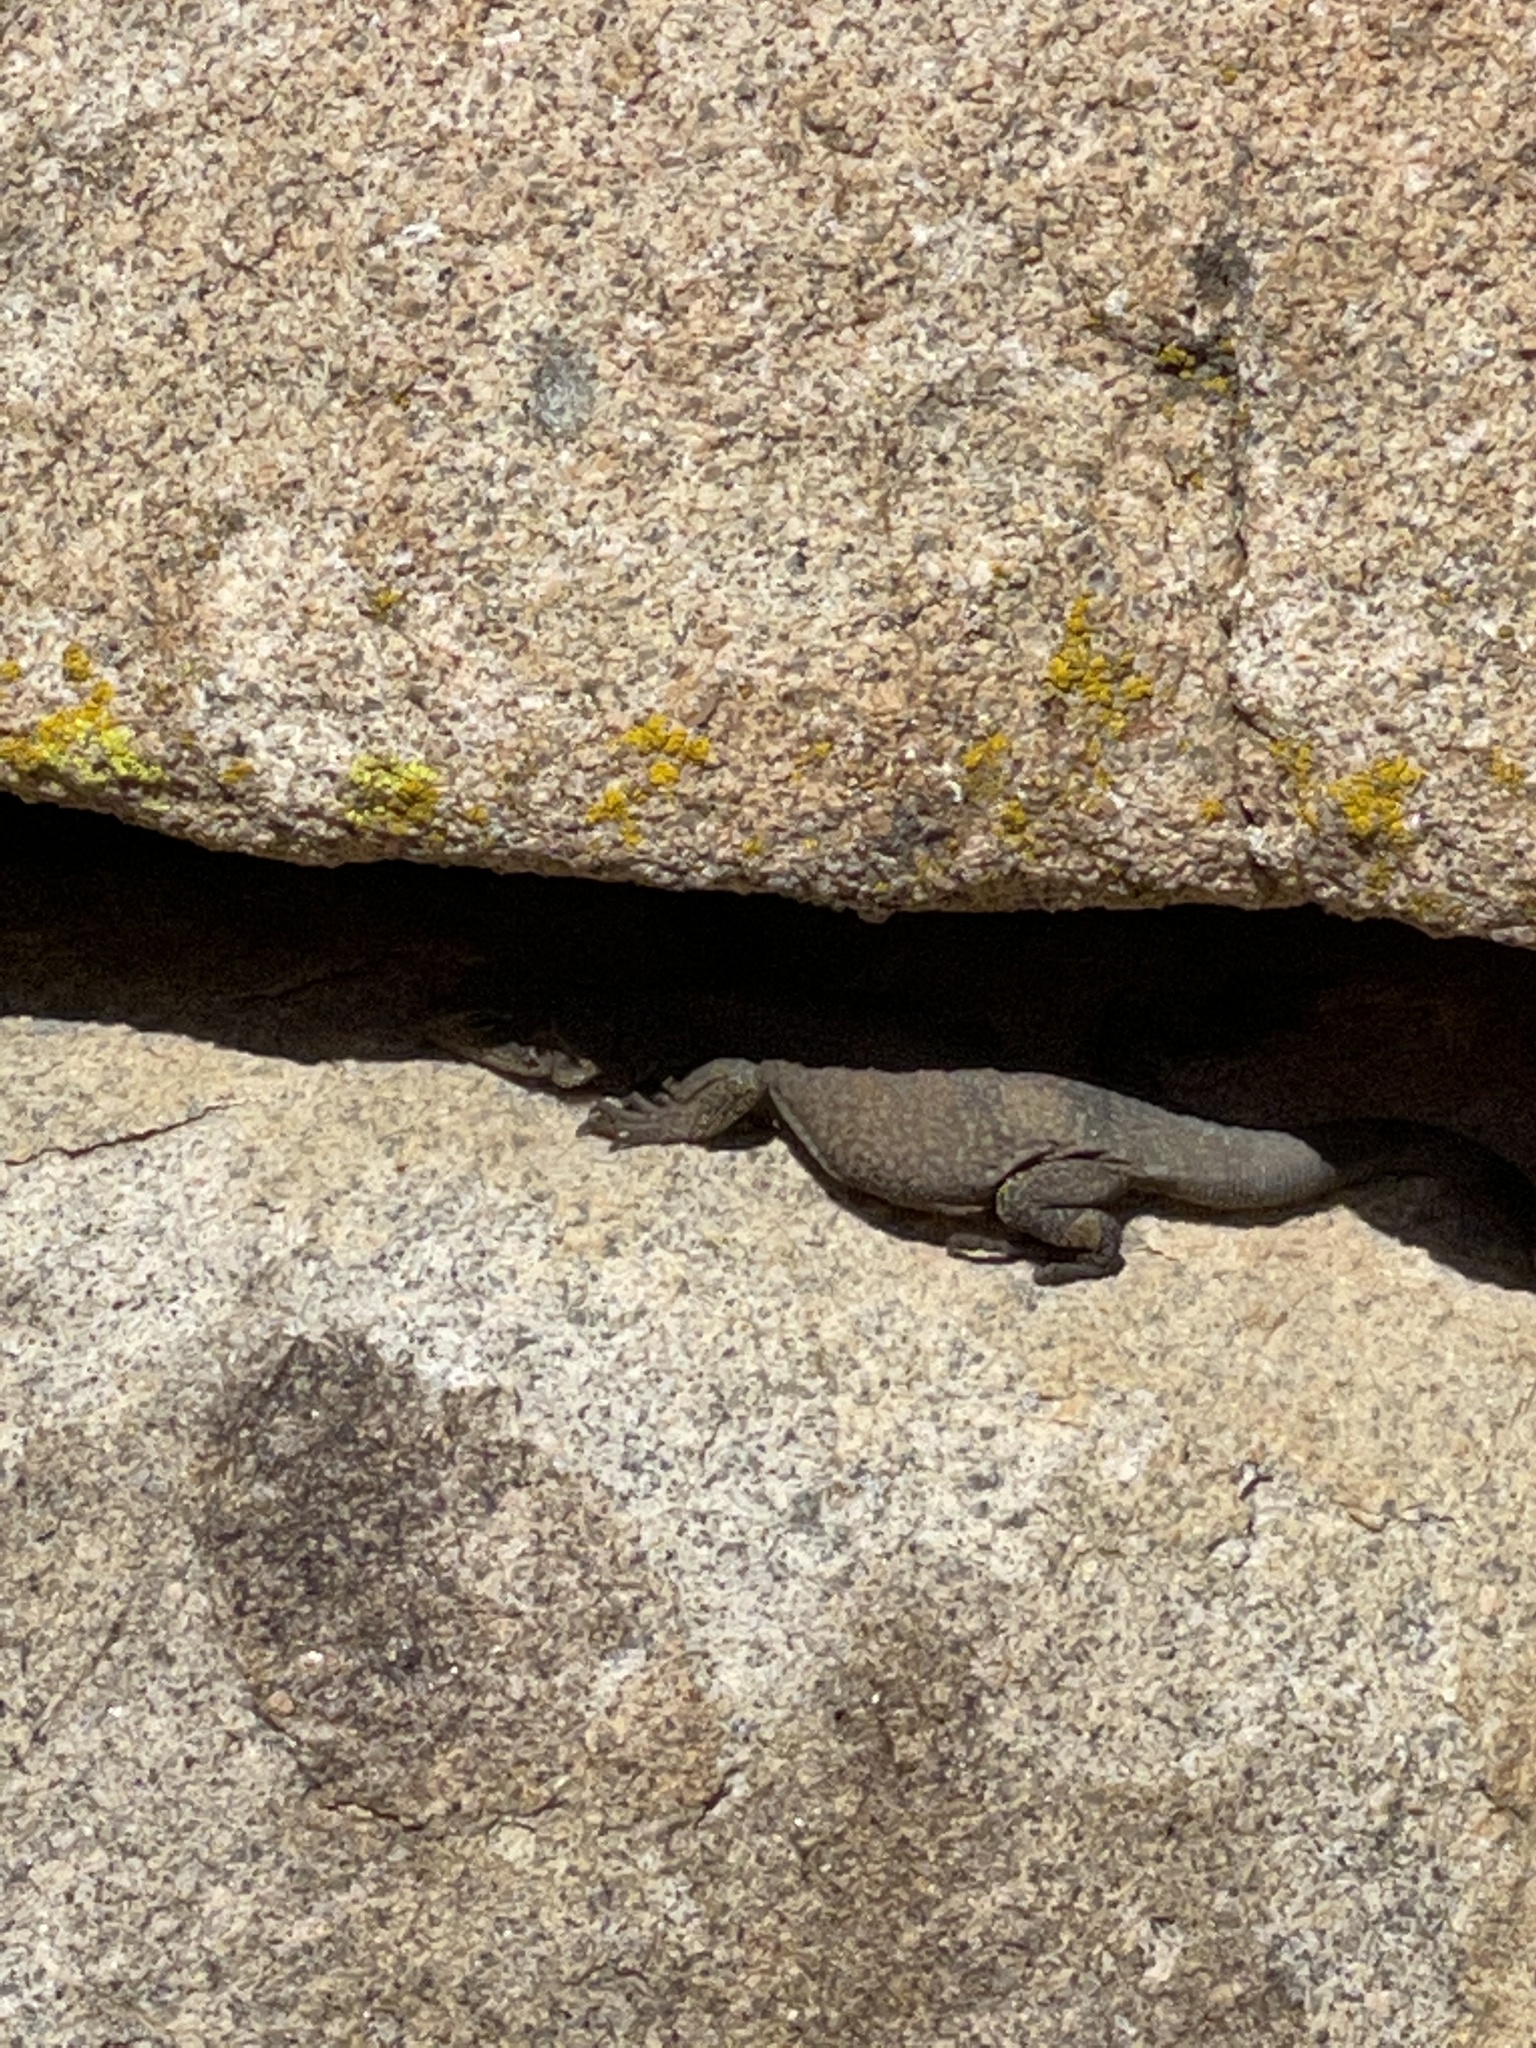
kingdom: Animalia
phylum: Chordata
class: Squamata
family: Iguanidae
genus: Sauromalus
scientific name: Sauromalus ater
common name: Northern chuckwalla
